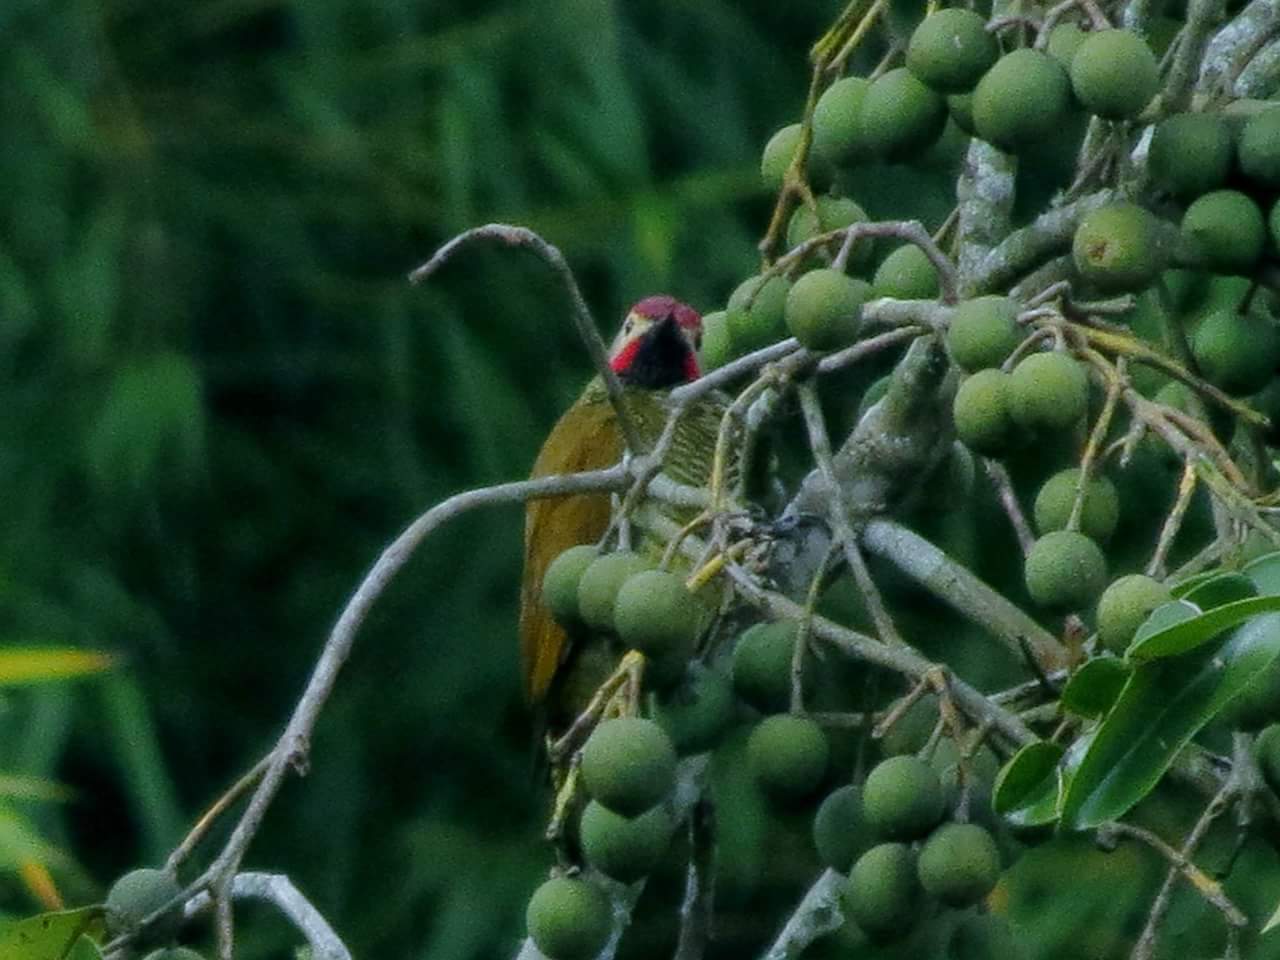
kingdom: Animalia
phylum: Chordata
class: Aves
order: Piciformes
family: Picidae
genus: Colaptes
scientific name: Colaptes rubiginosus
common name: Golden-olive woodpecker
